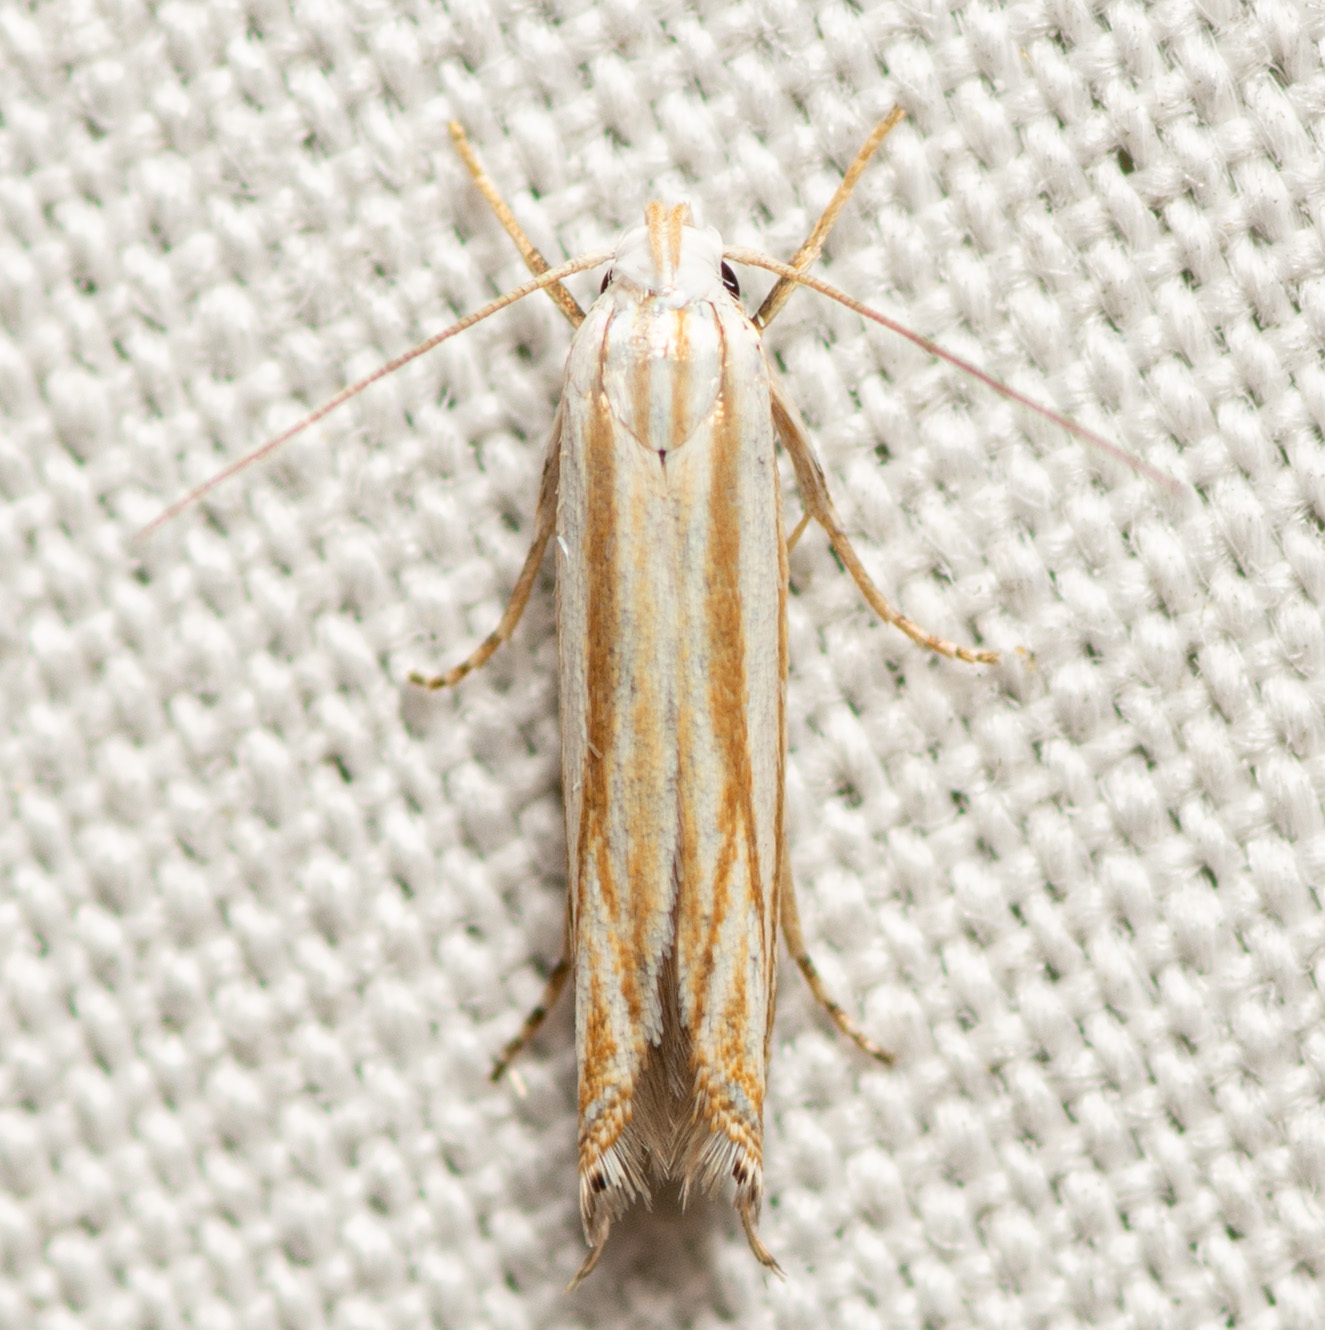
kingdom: Animalia
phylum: Arthropoda
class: Insecta
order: Lepidoptera
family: Gelechiidae
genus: Polyhymno
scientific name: Polyhymno luteostrigella
